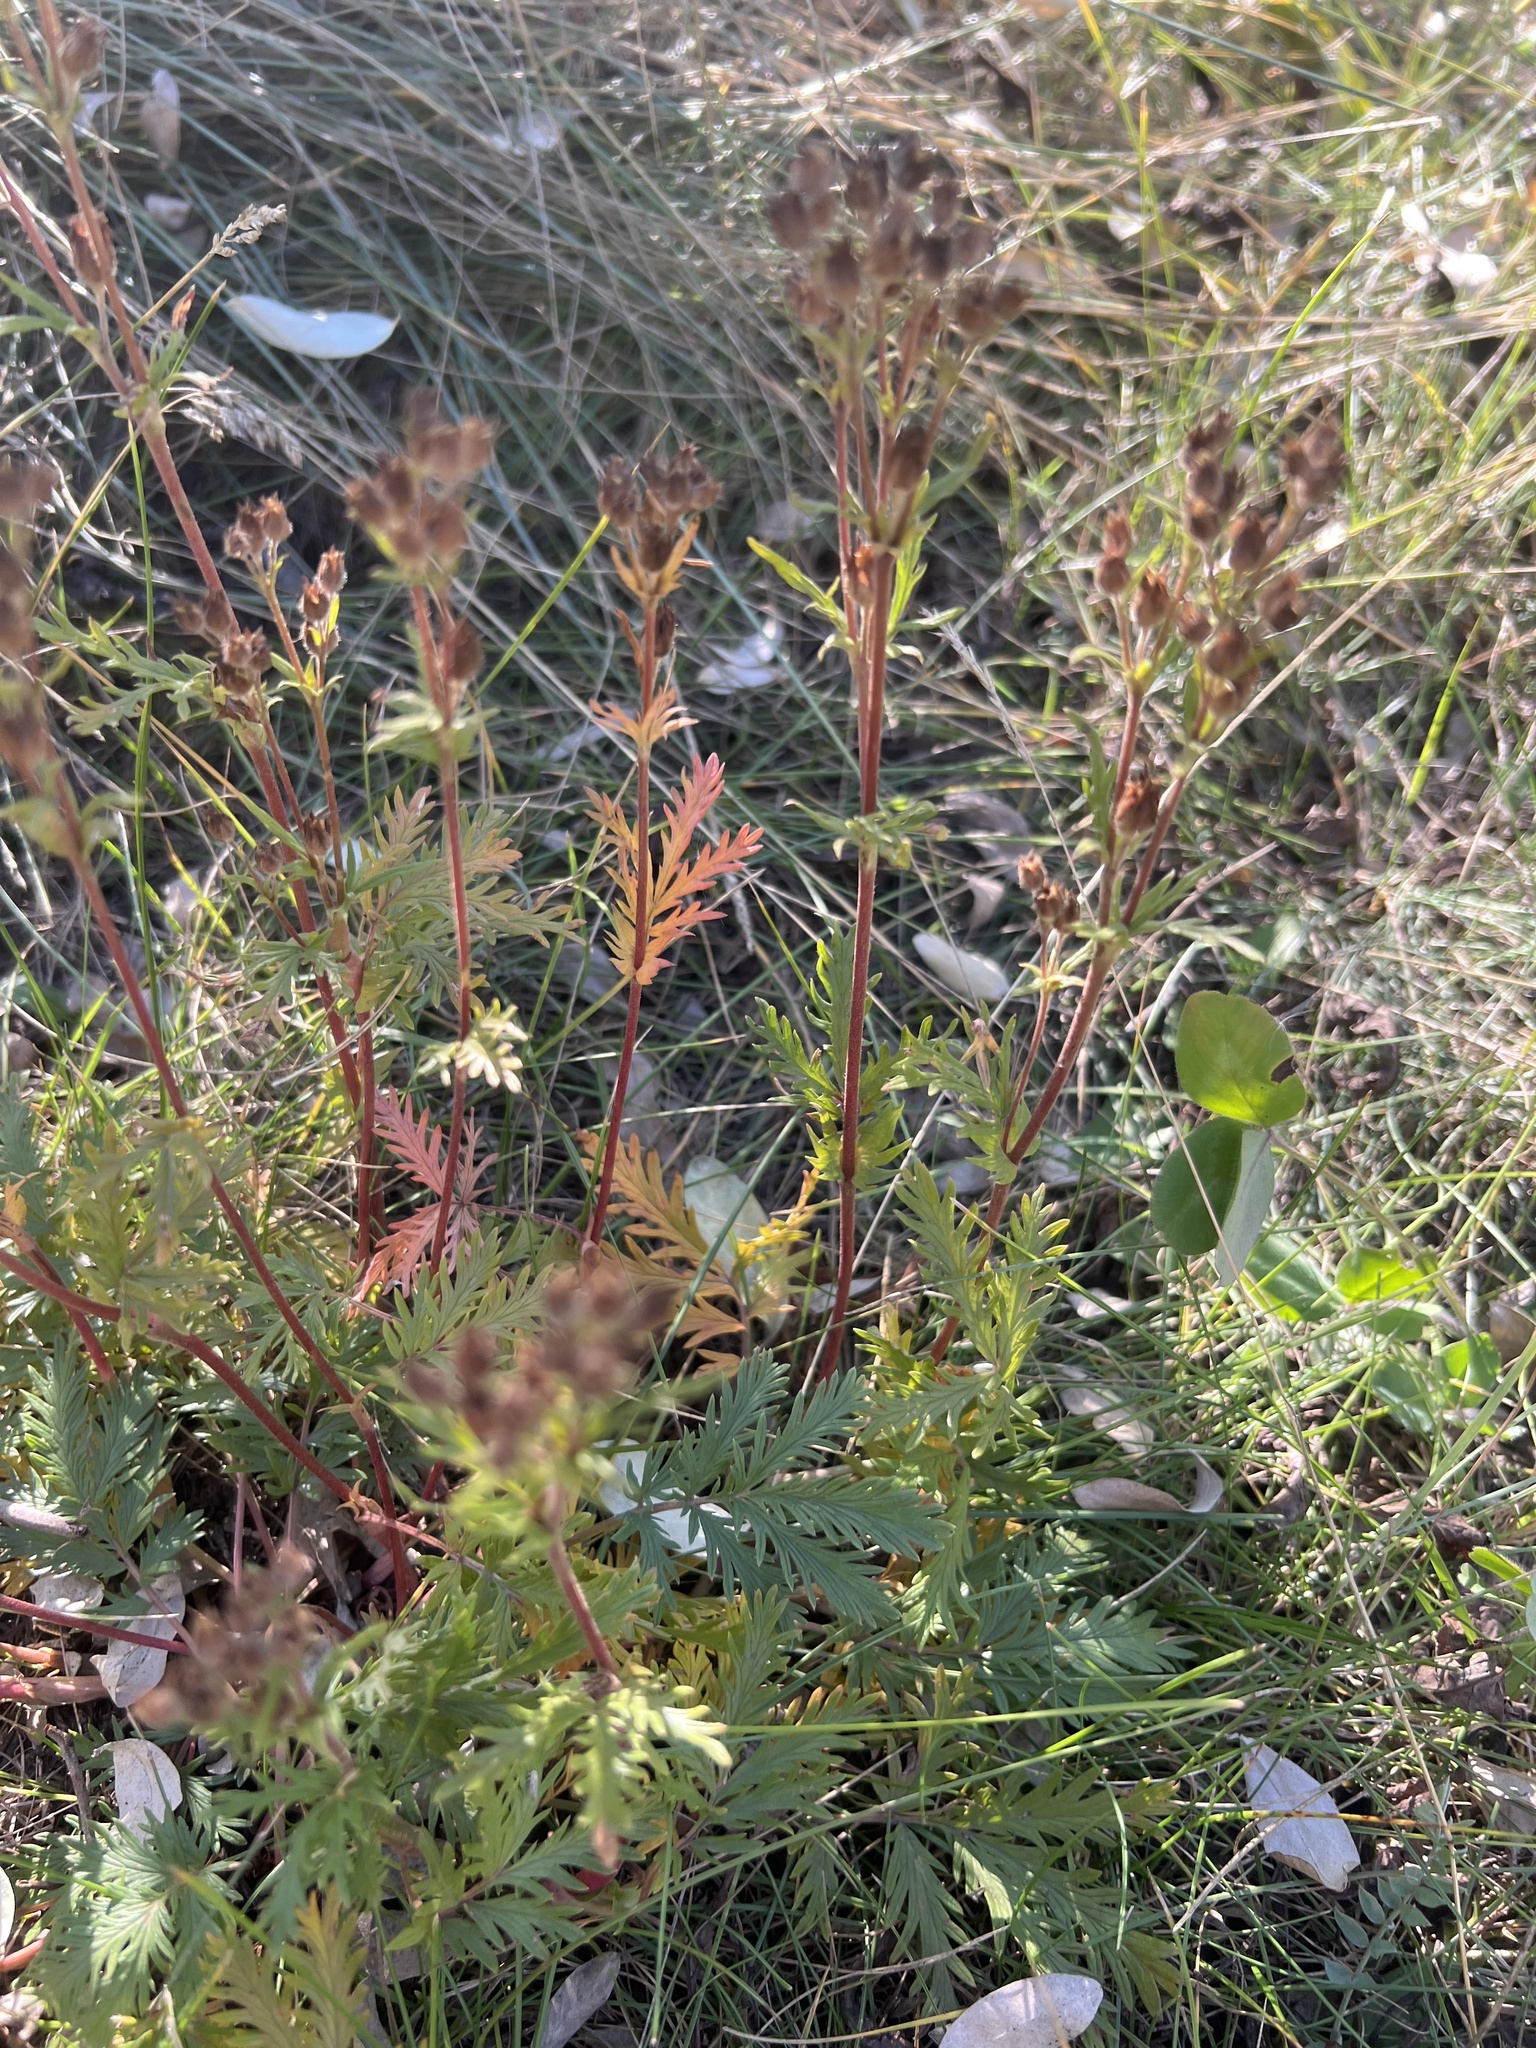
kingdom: Plantae
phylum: Tracheophyta
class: Magnoliopsida
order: Rosales
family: Rosaceae
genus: Potentilla
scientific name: Potentilla pensylvanica
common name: Pennsylvania cinquefoil
